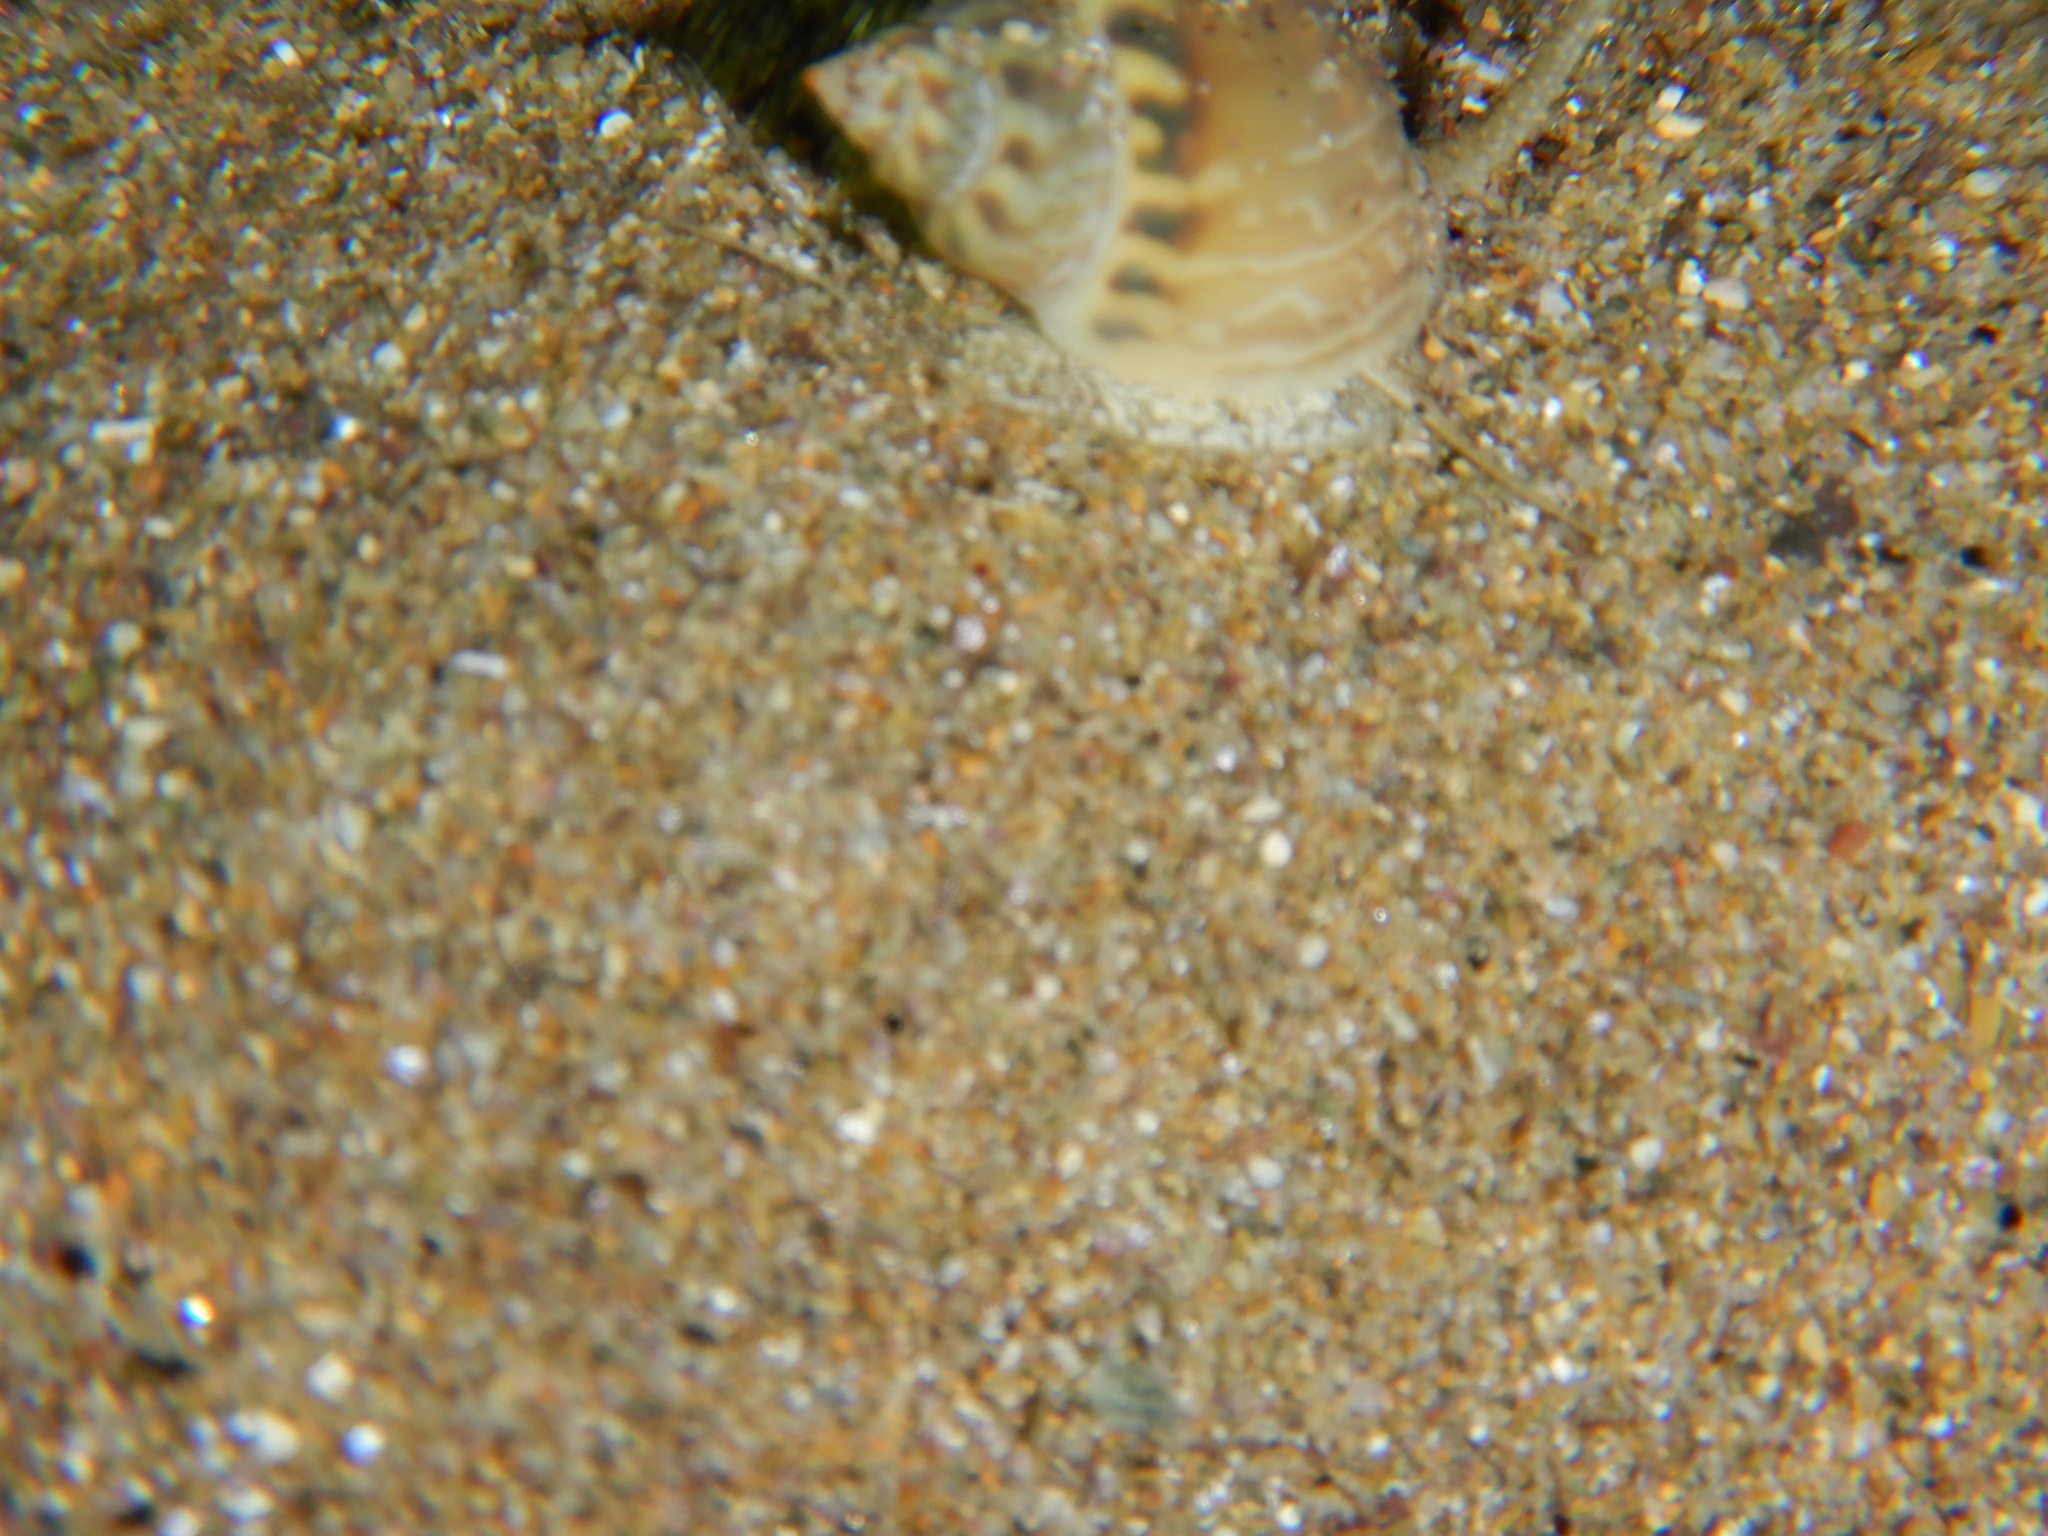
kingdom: Animalia
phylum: Mollusca
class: Gastropoda
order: Neogastropoda
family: Nassariidae
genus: Tritia
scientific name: Tritia mutabilis
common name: Mutable nassa
